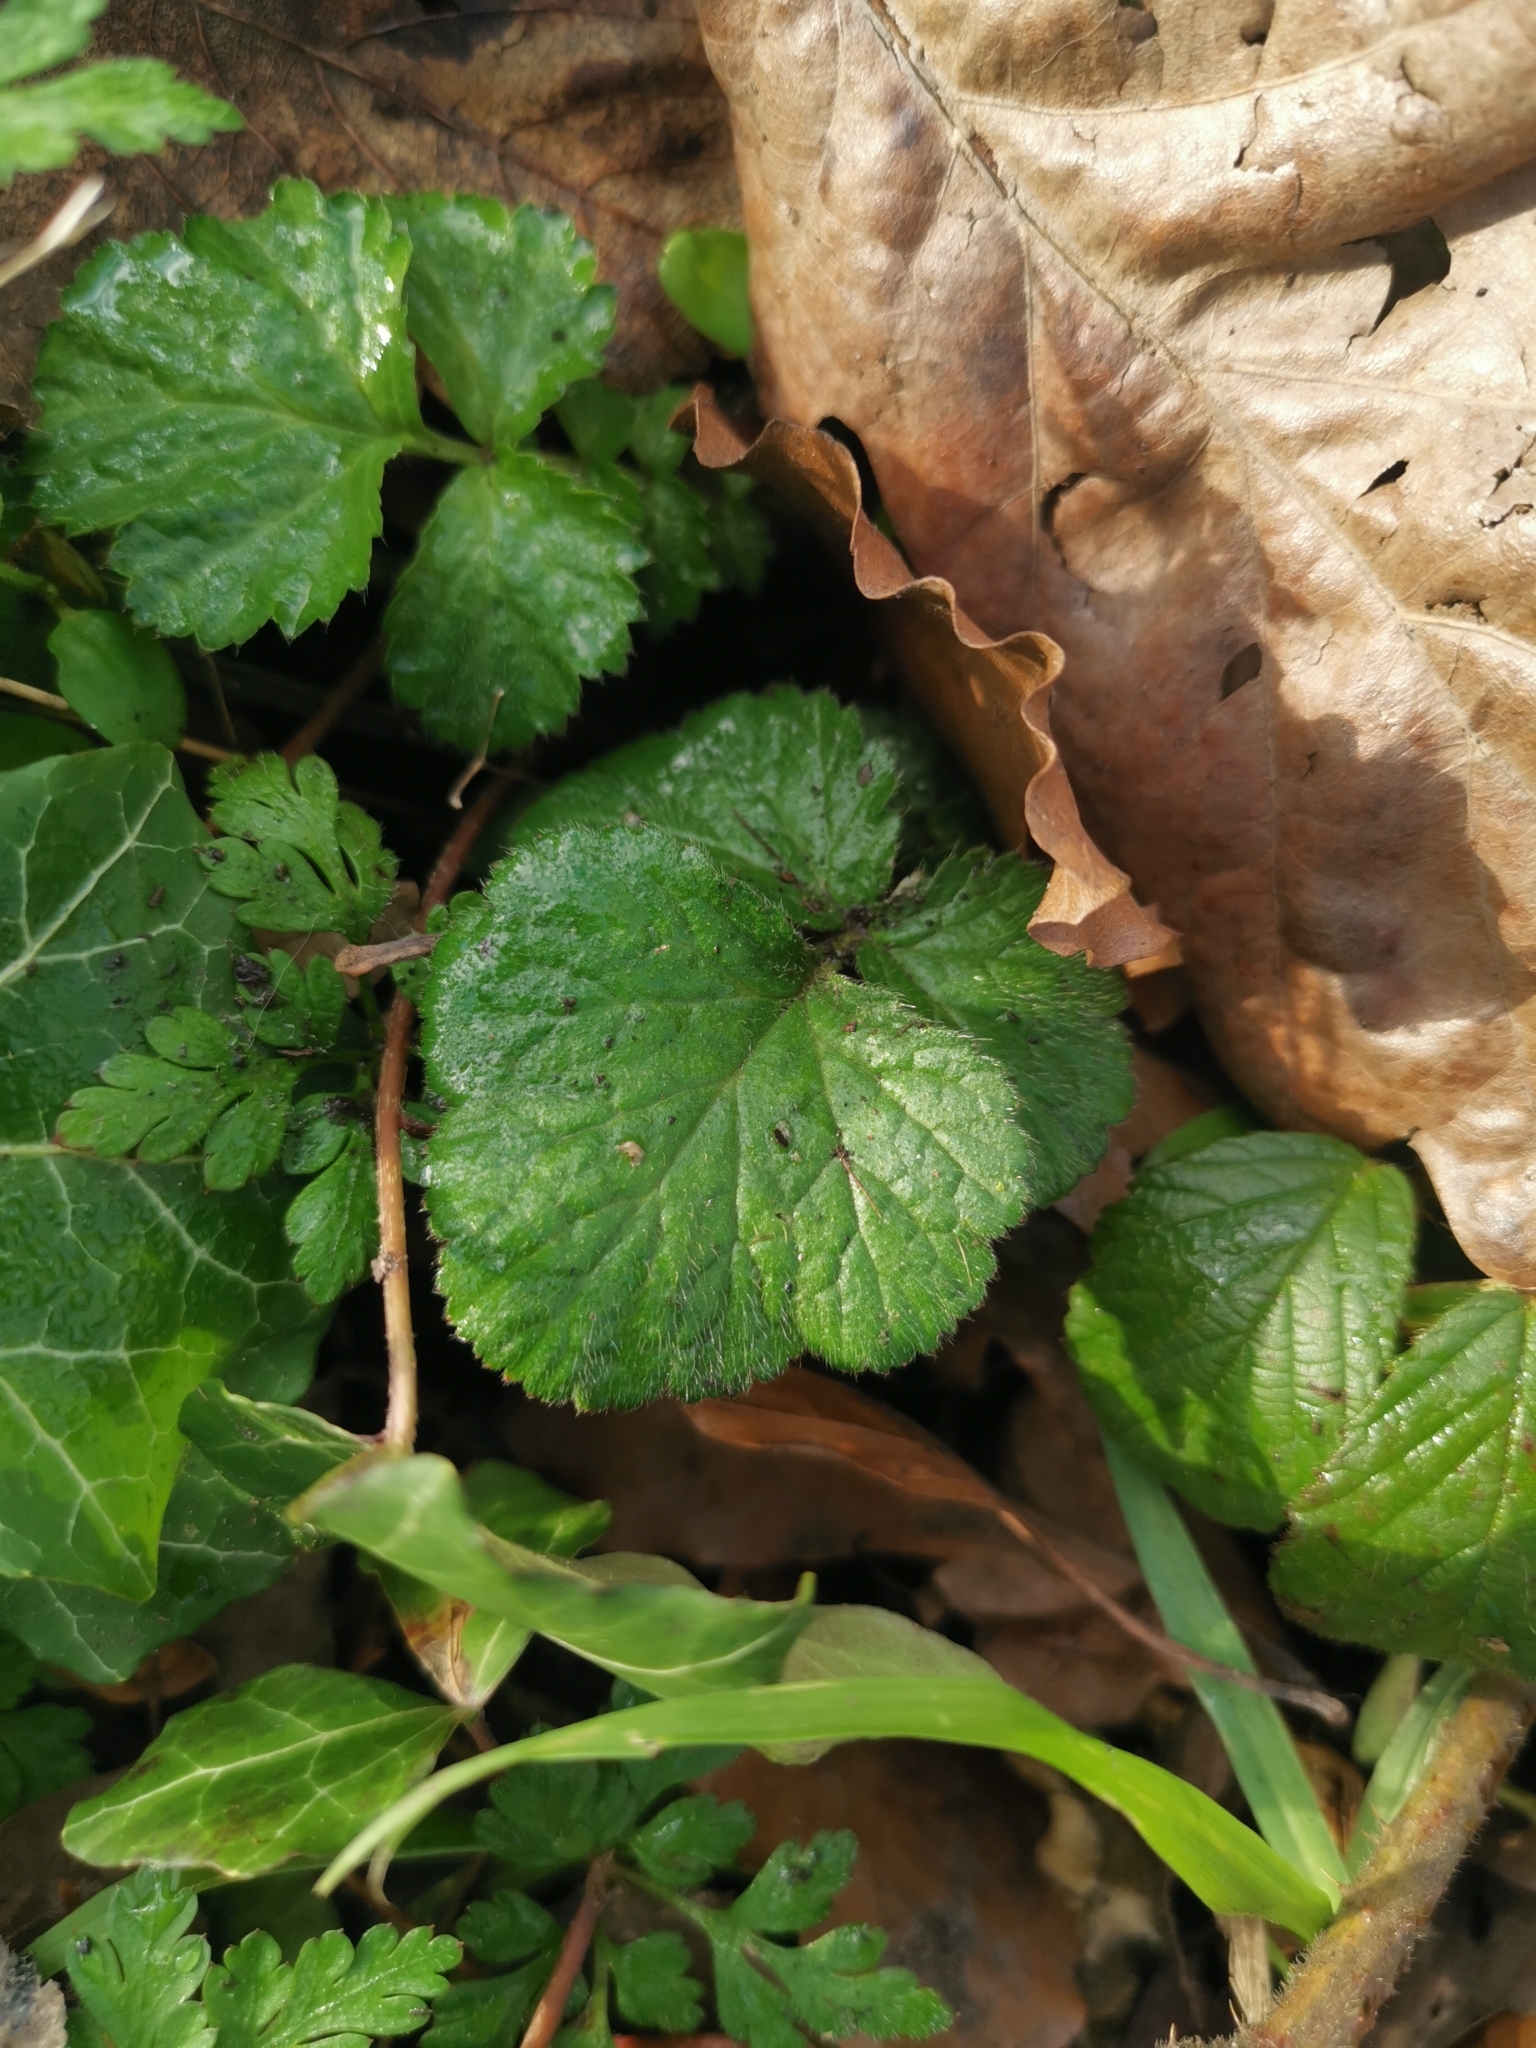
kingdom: Plantae
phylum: Tracheophyta
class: Magnoliopsida
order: Rosales
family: Rosaceae
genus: Geum
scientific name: Geum urbanum
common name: Wood avens
